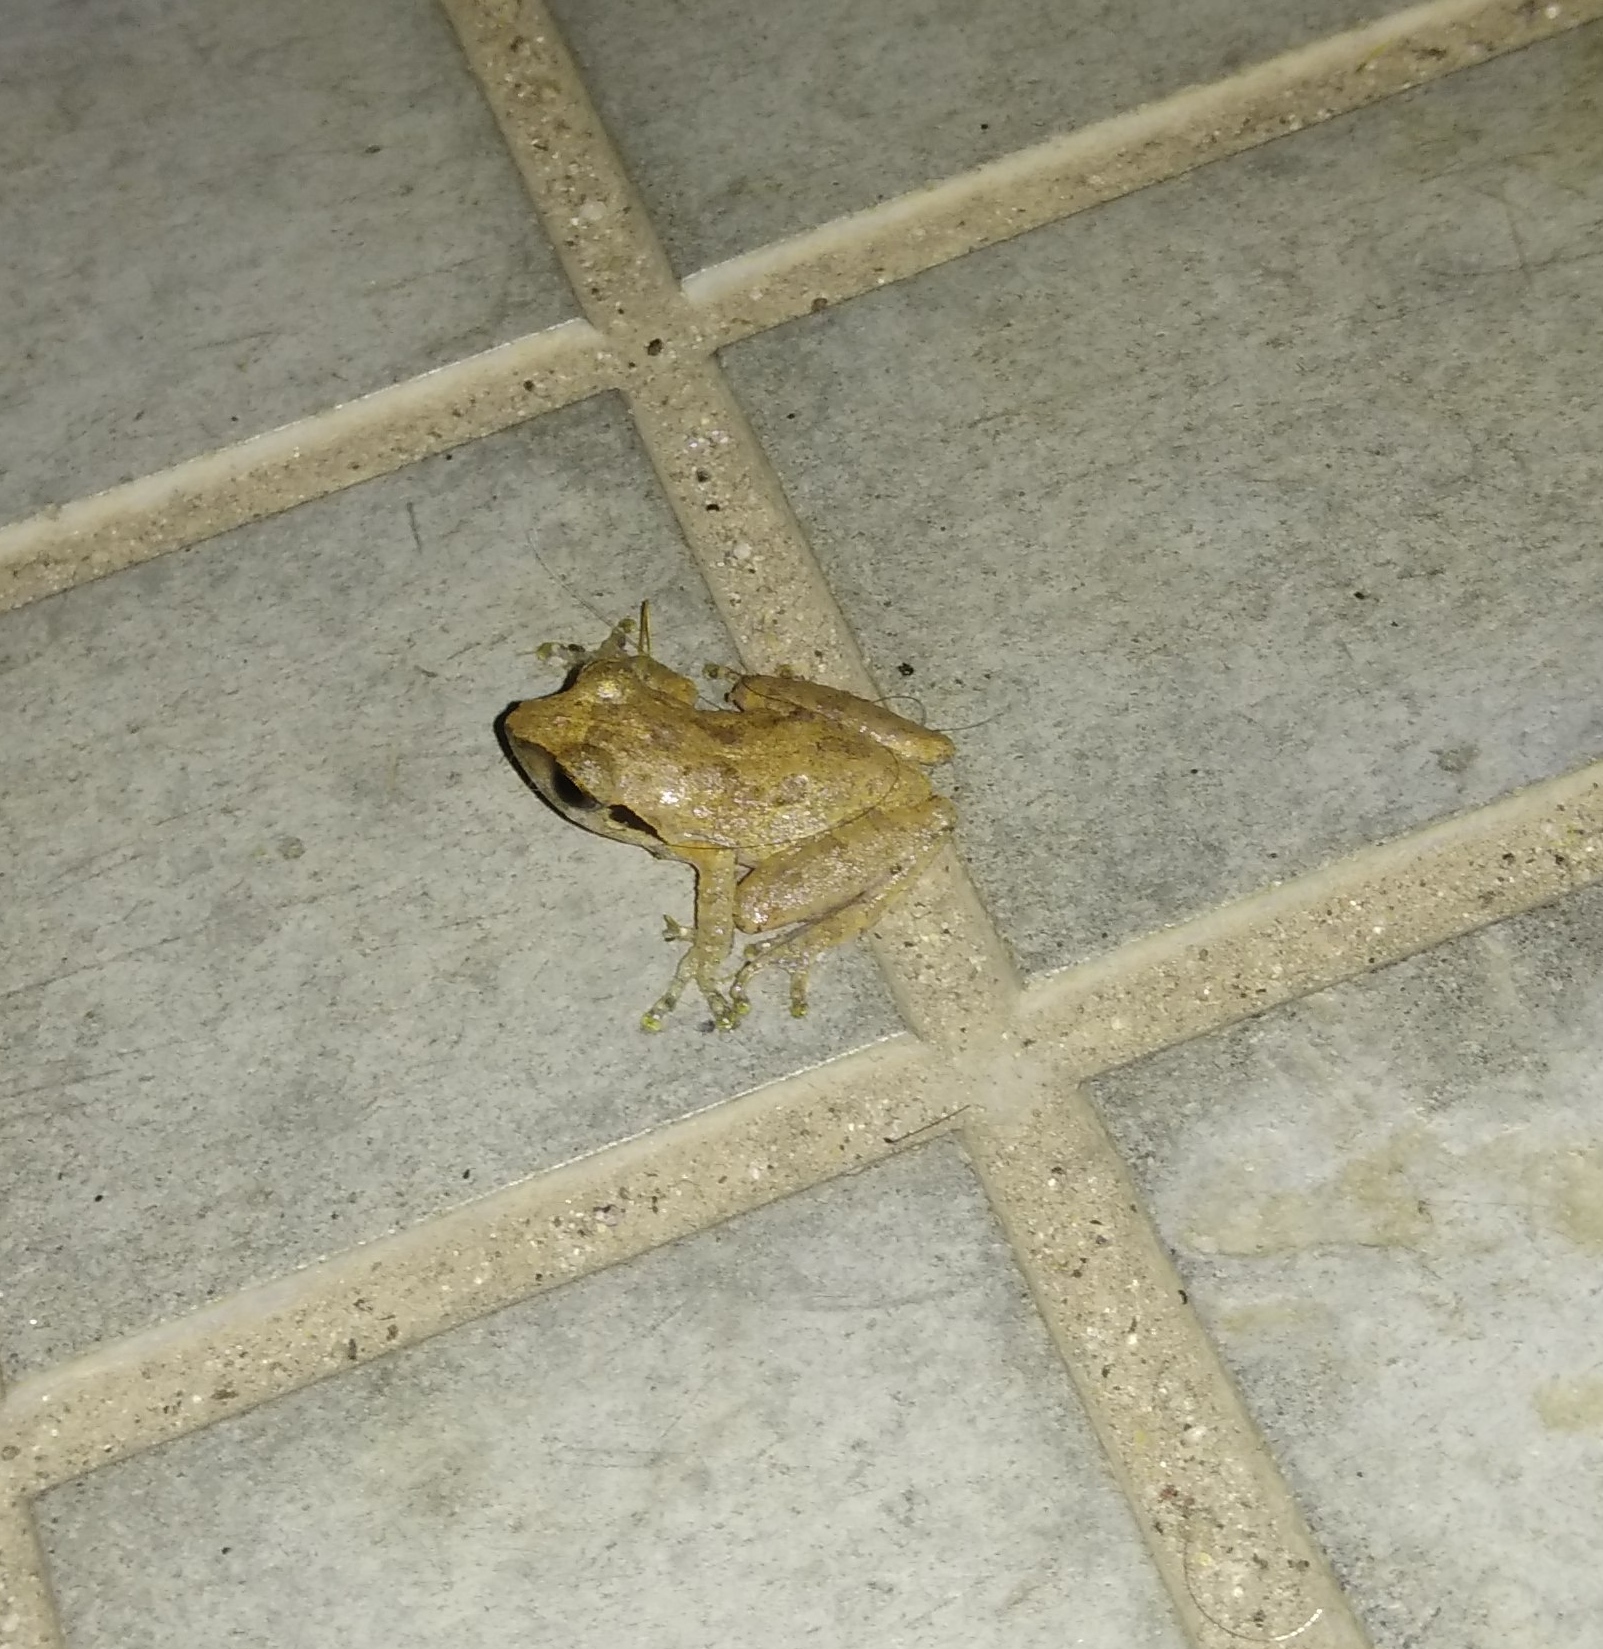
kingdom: Animalia
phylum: Chordata
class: Amphibia
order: Anura
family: Rhacophoridae
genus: Pseudophilautus
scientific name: Pseudophilautus wynaadensis
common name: Dark-eared bush frog
